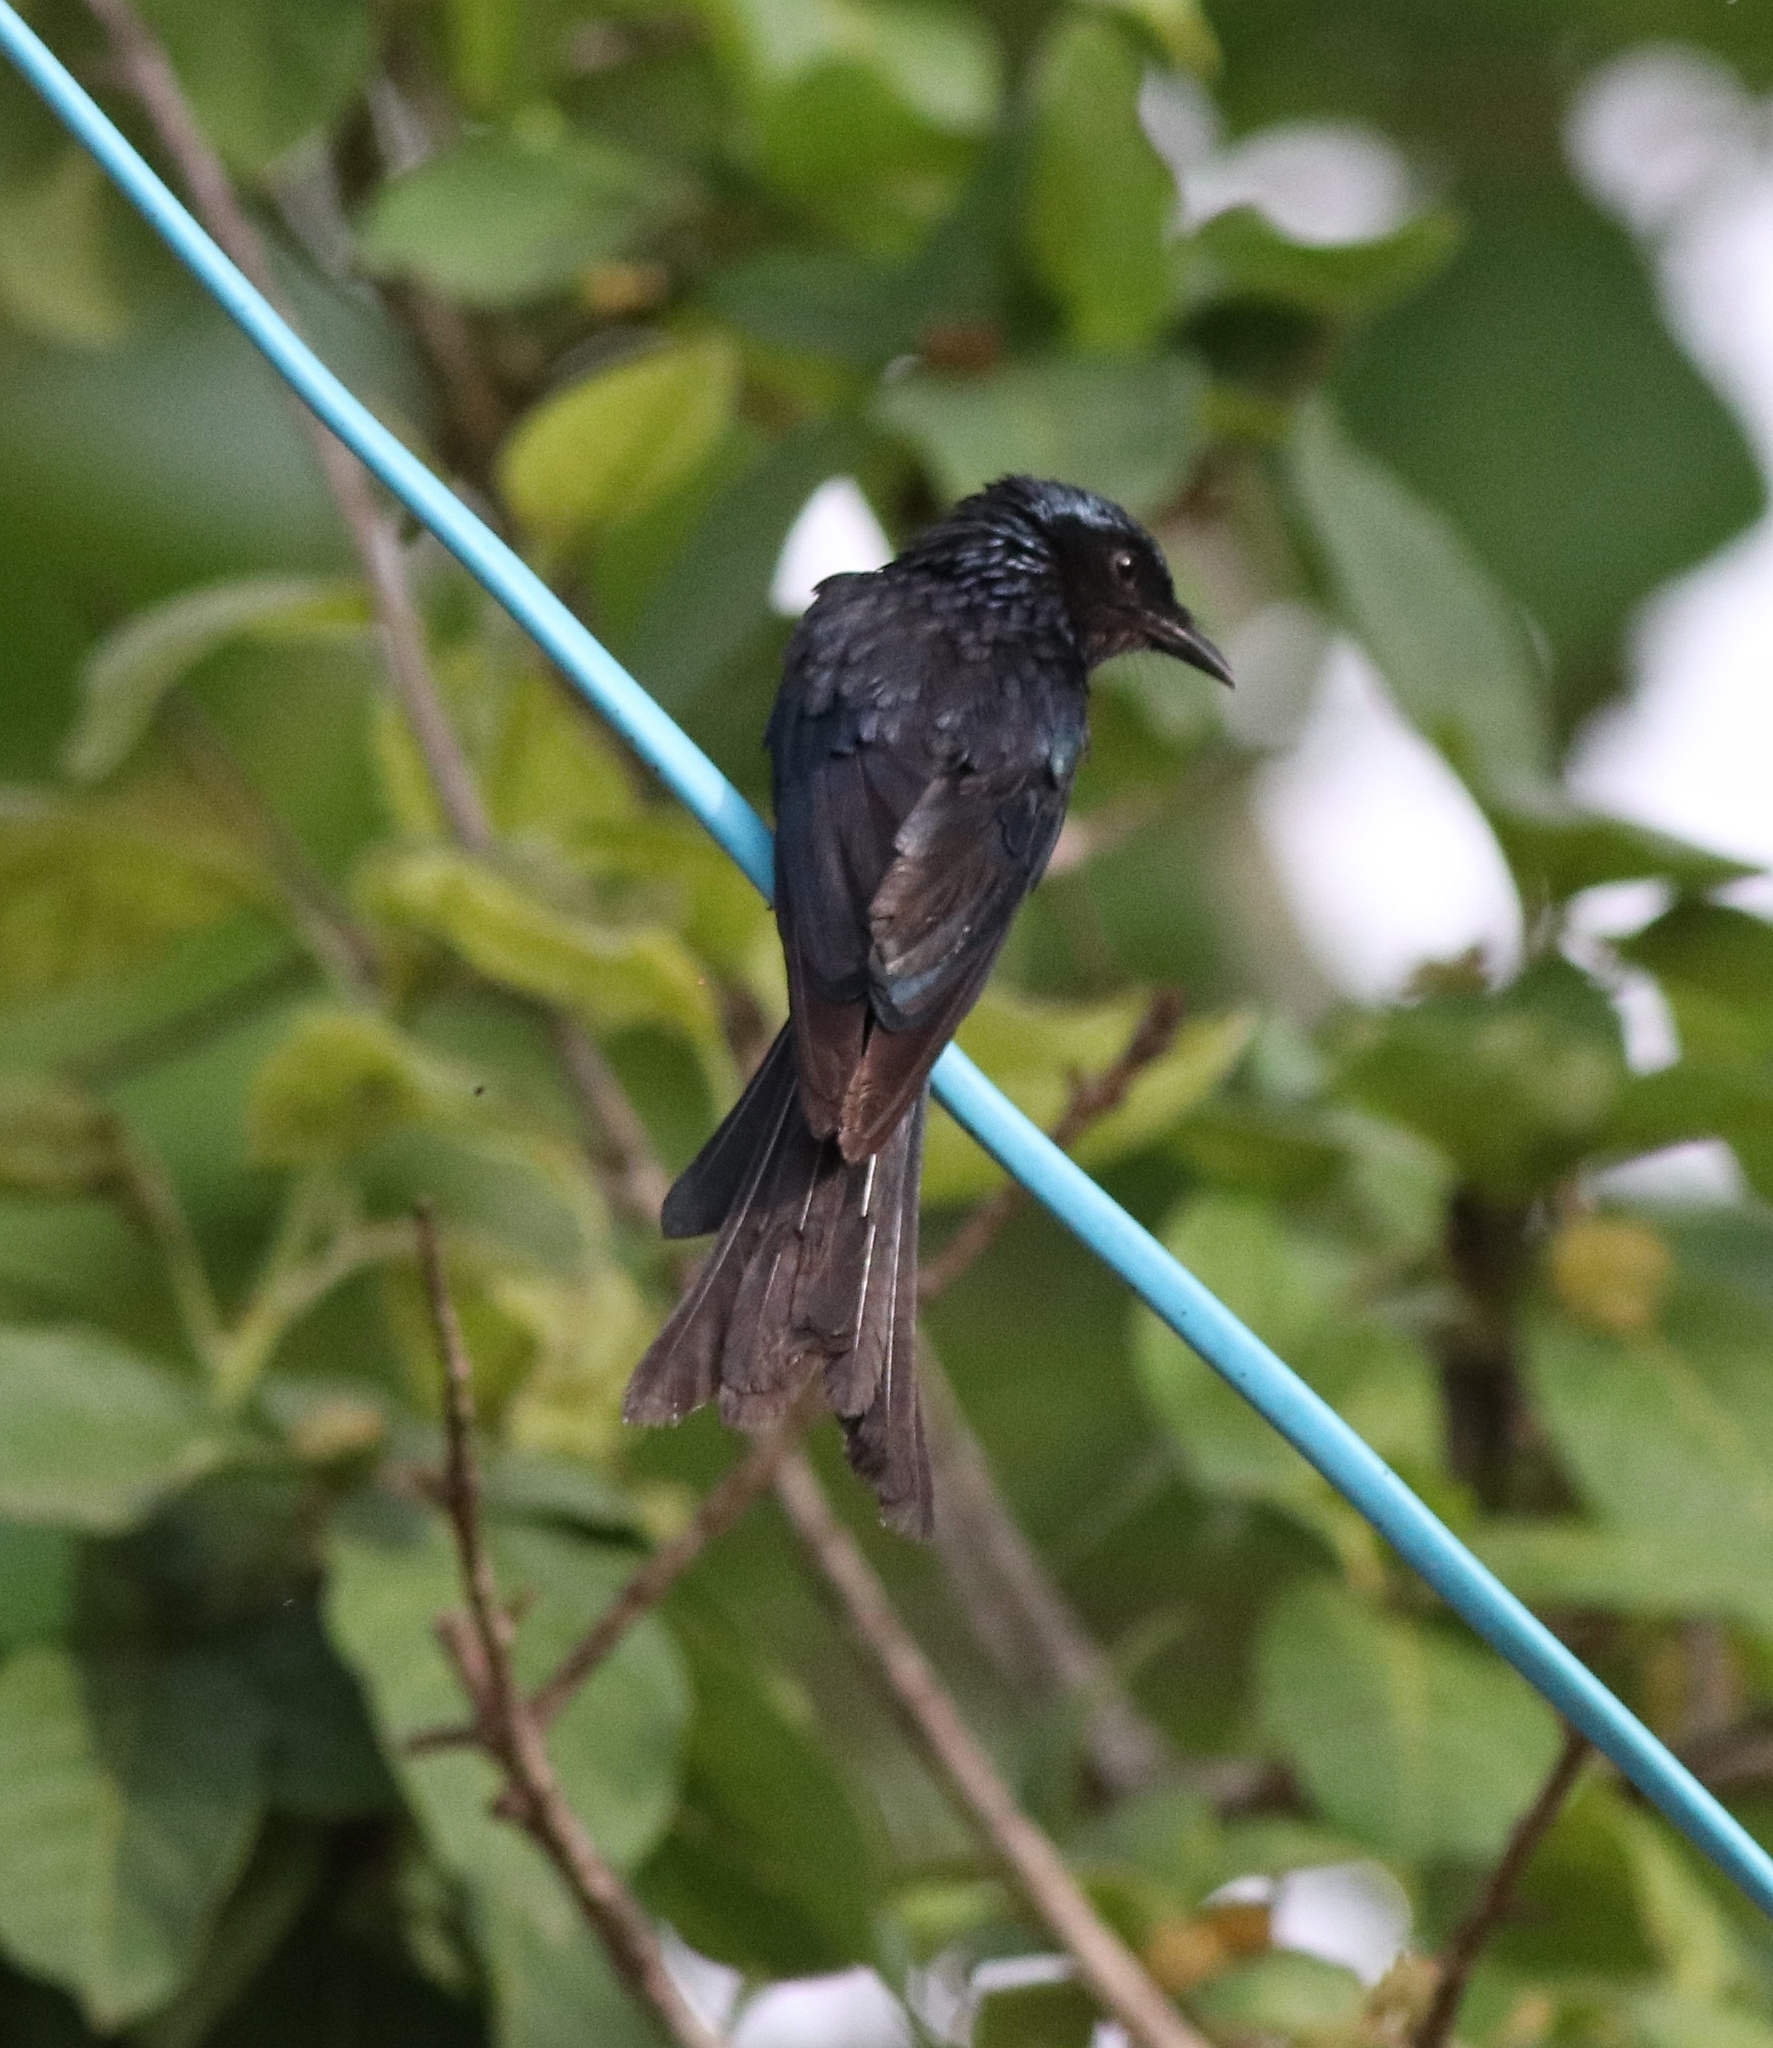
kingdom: Animalia
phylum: Chordata
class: Aves
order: Passeriformes
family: Dicruridae
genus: Dicrurus
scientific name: Dicrurus aeneus
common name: Bronzed drongo
